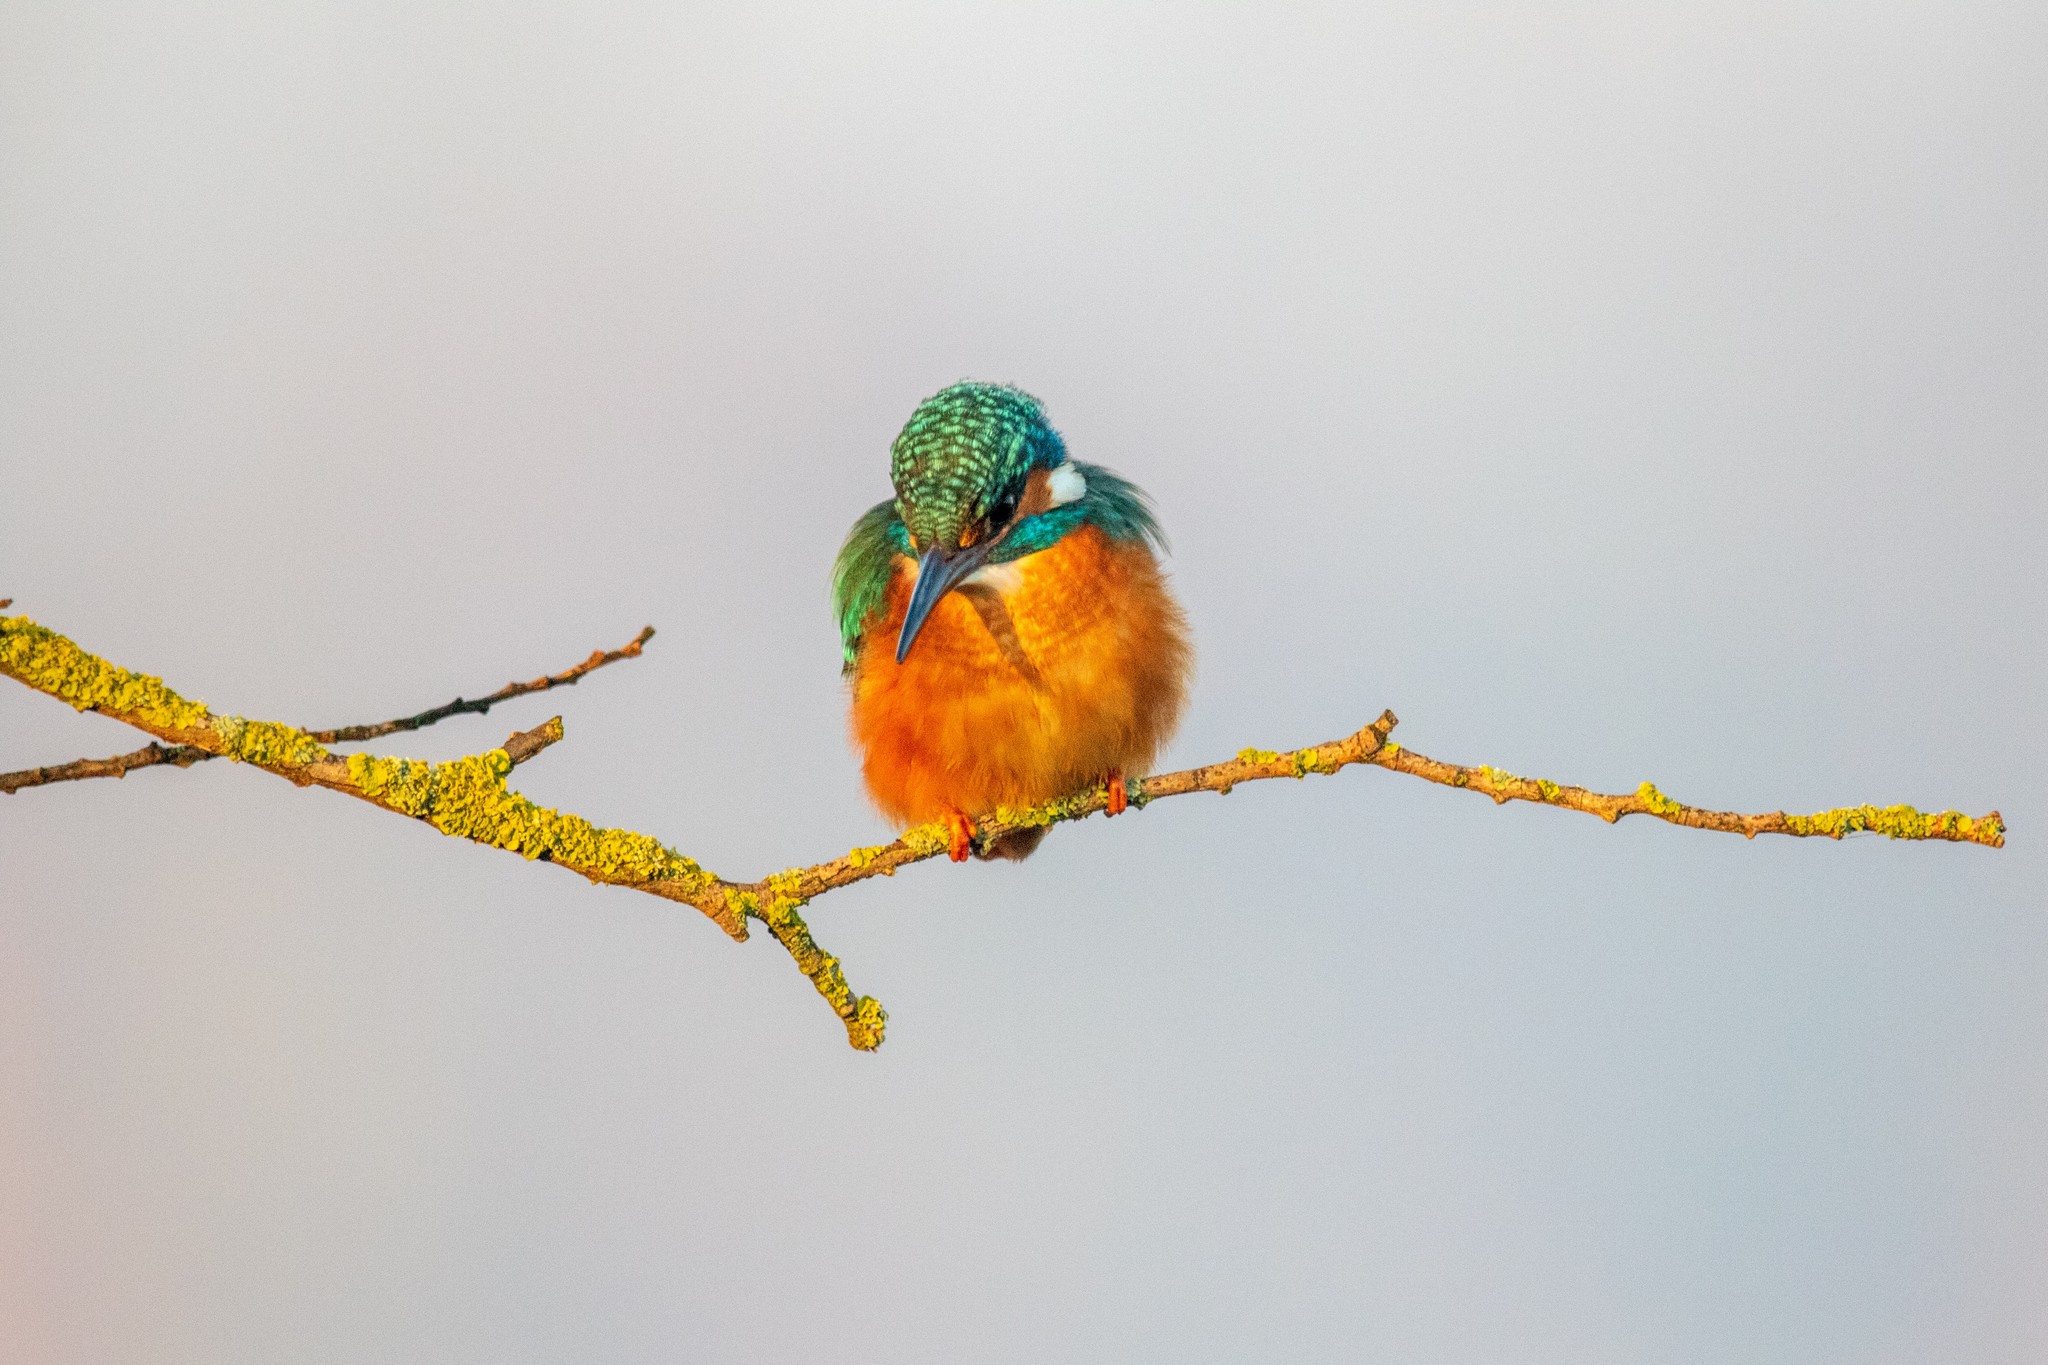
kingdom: Animalia
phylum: Chordata
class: Aves
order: Coraciiformes
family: Alcedinidae
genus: Alcedo
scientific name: Alcedo atthis
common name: Common kingfisher
